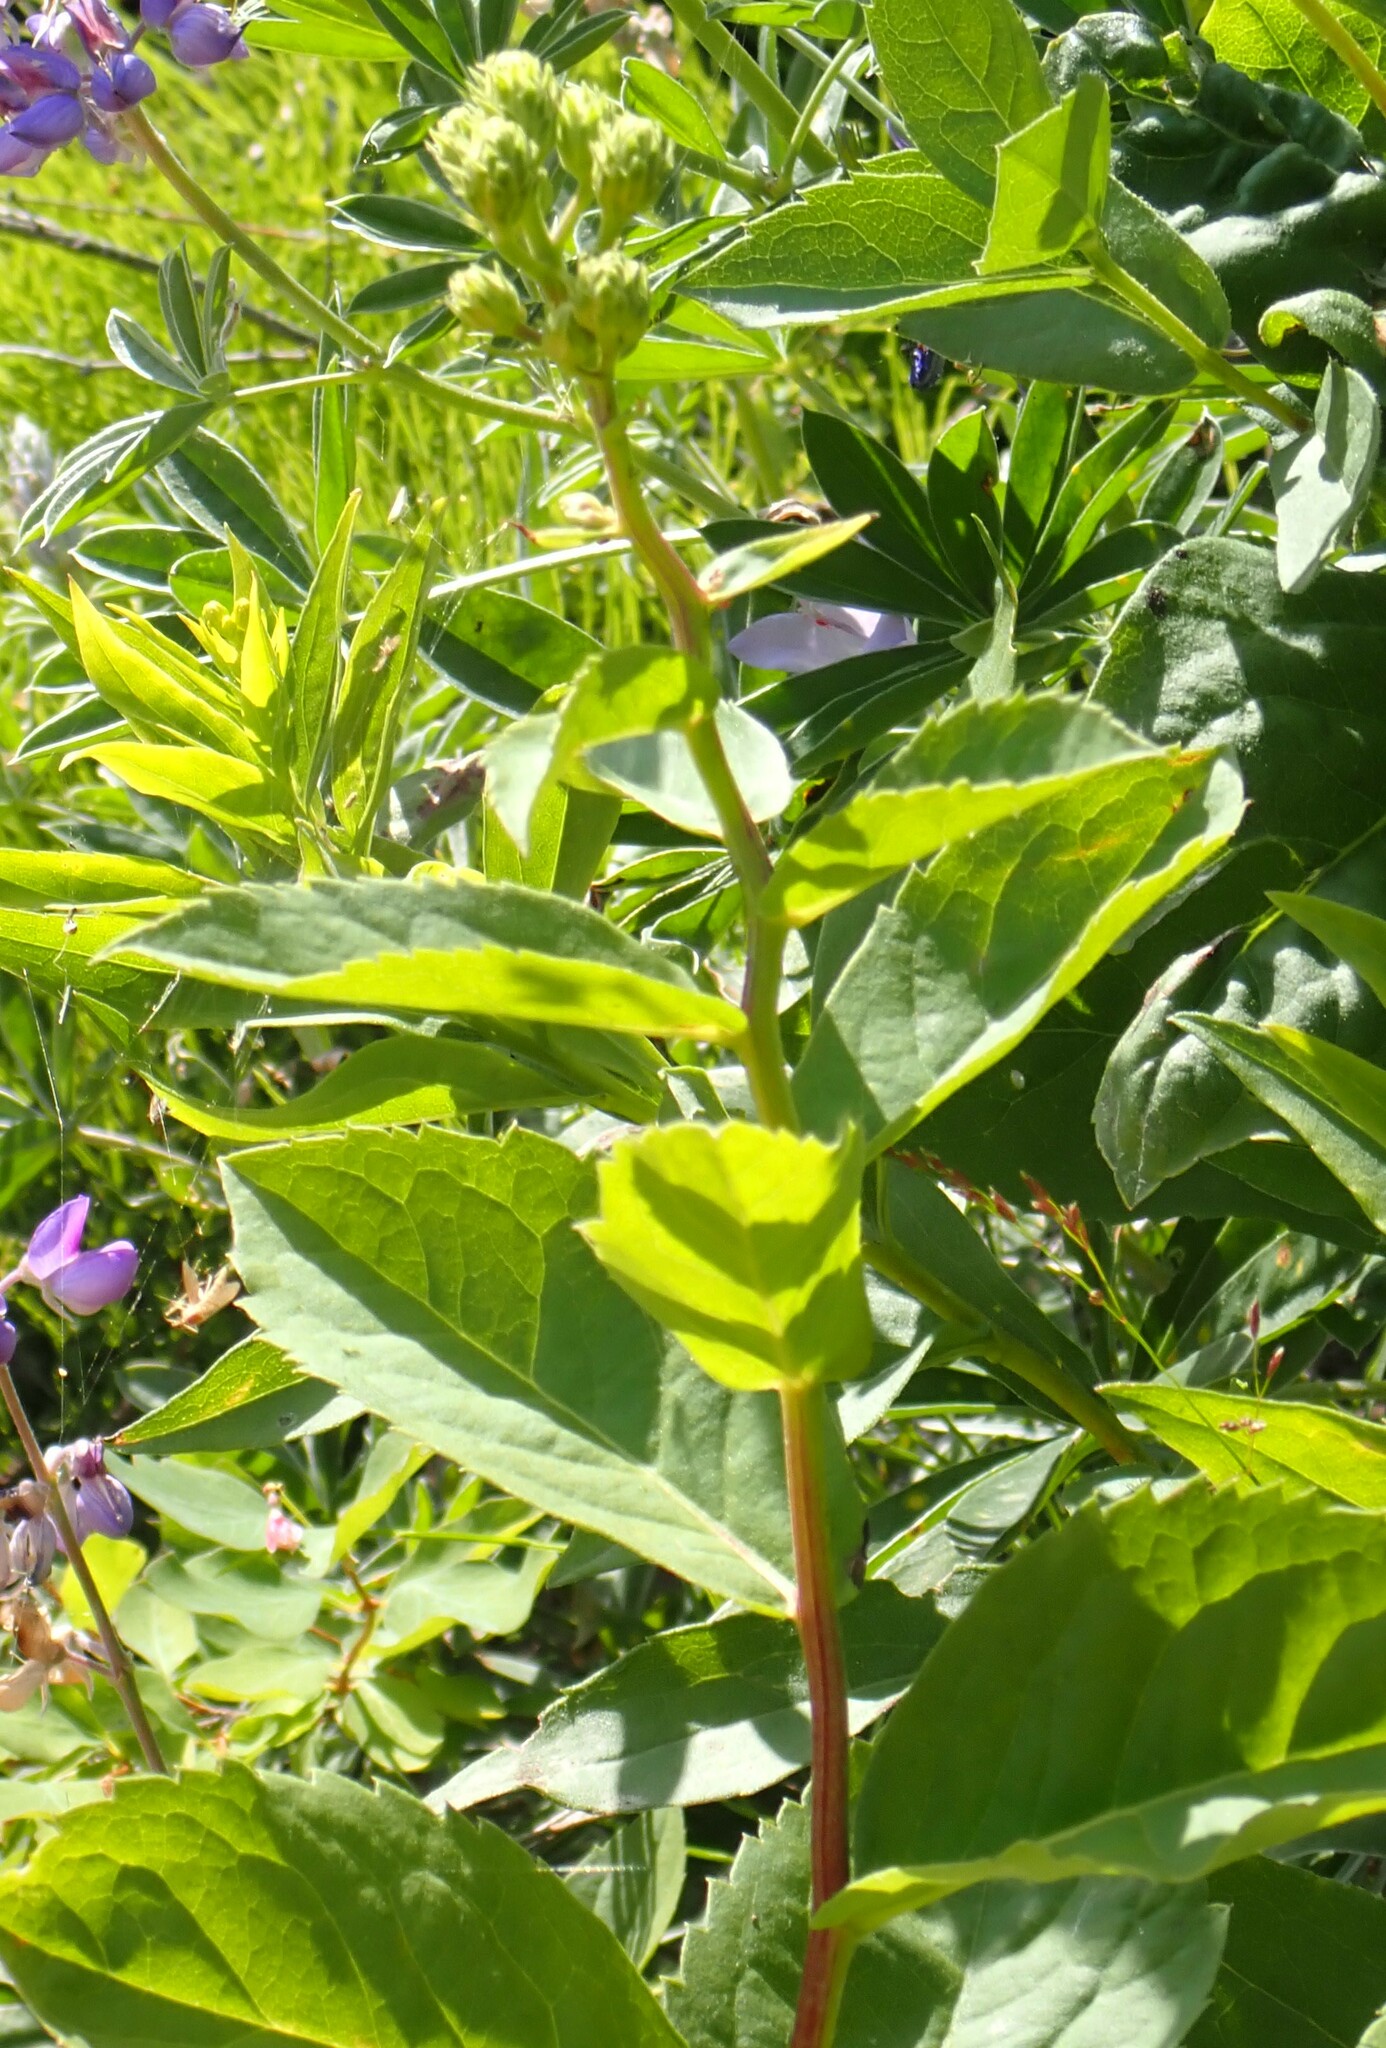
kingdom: Plantae
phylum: Tracheophyta
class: Magnoliopsida
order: Asterales
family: Asteraceae
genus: Eurybia
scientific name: Eurybia conspicua
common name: Showy aster
